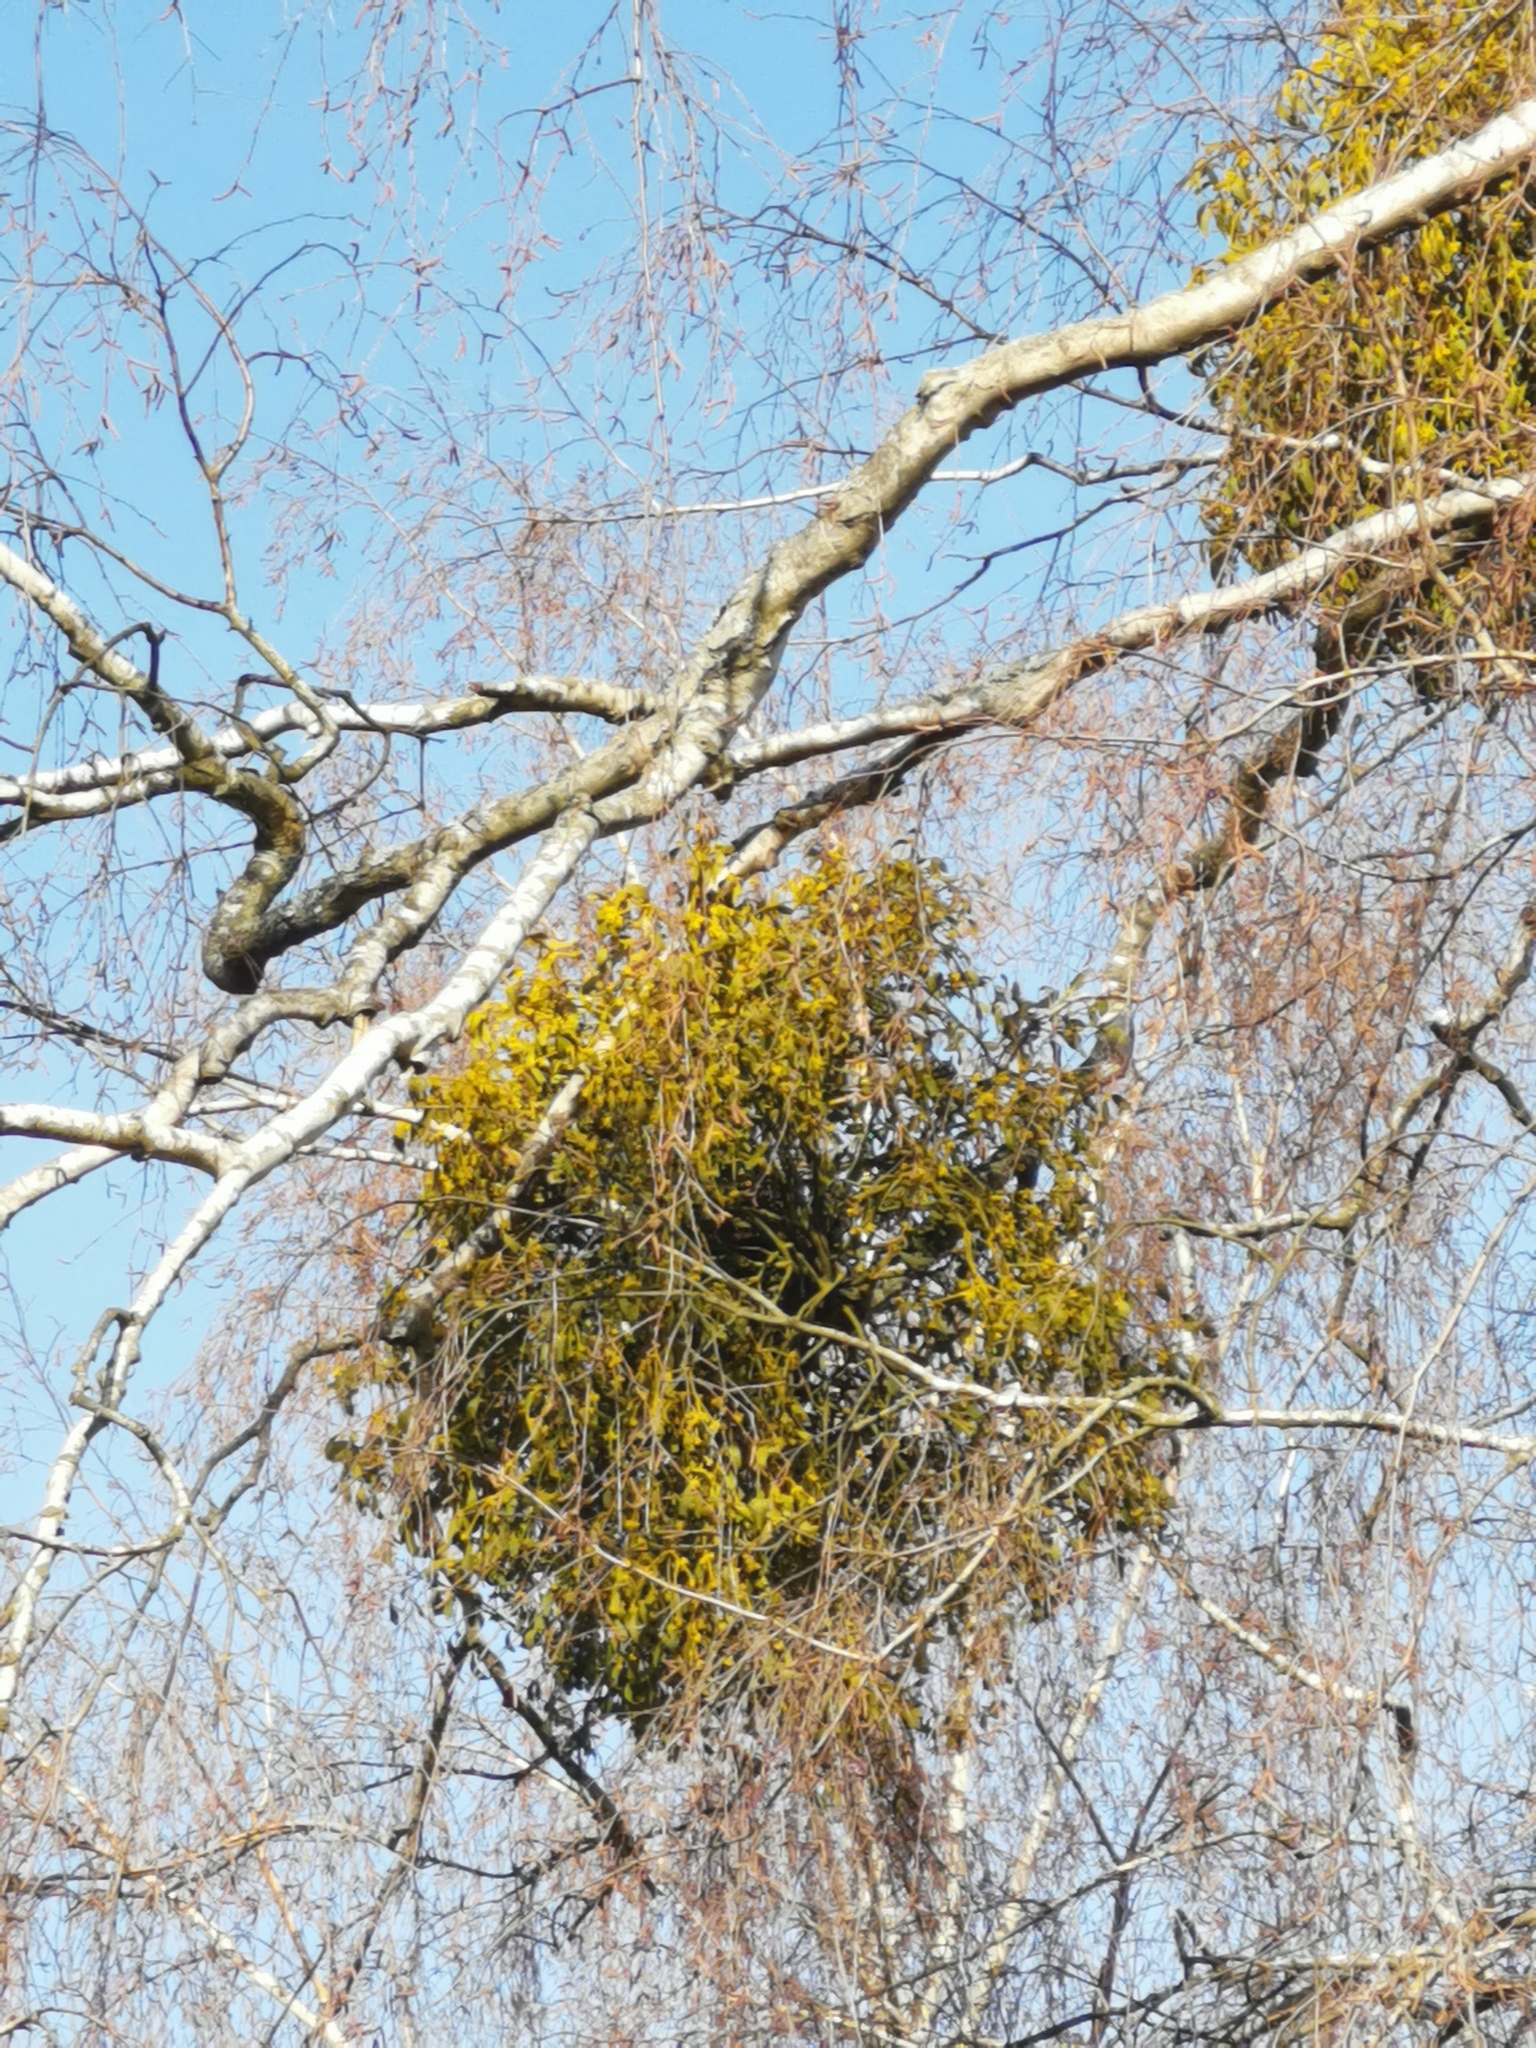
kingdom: Plantae
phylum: Tracheophyta
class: Magnoliopsida
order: Santalales
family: Viscaceae
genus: Viscum
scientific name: Viscum album
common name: Mistletoe
